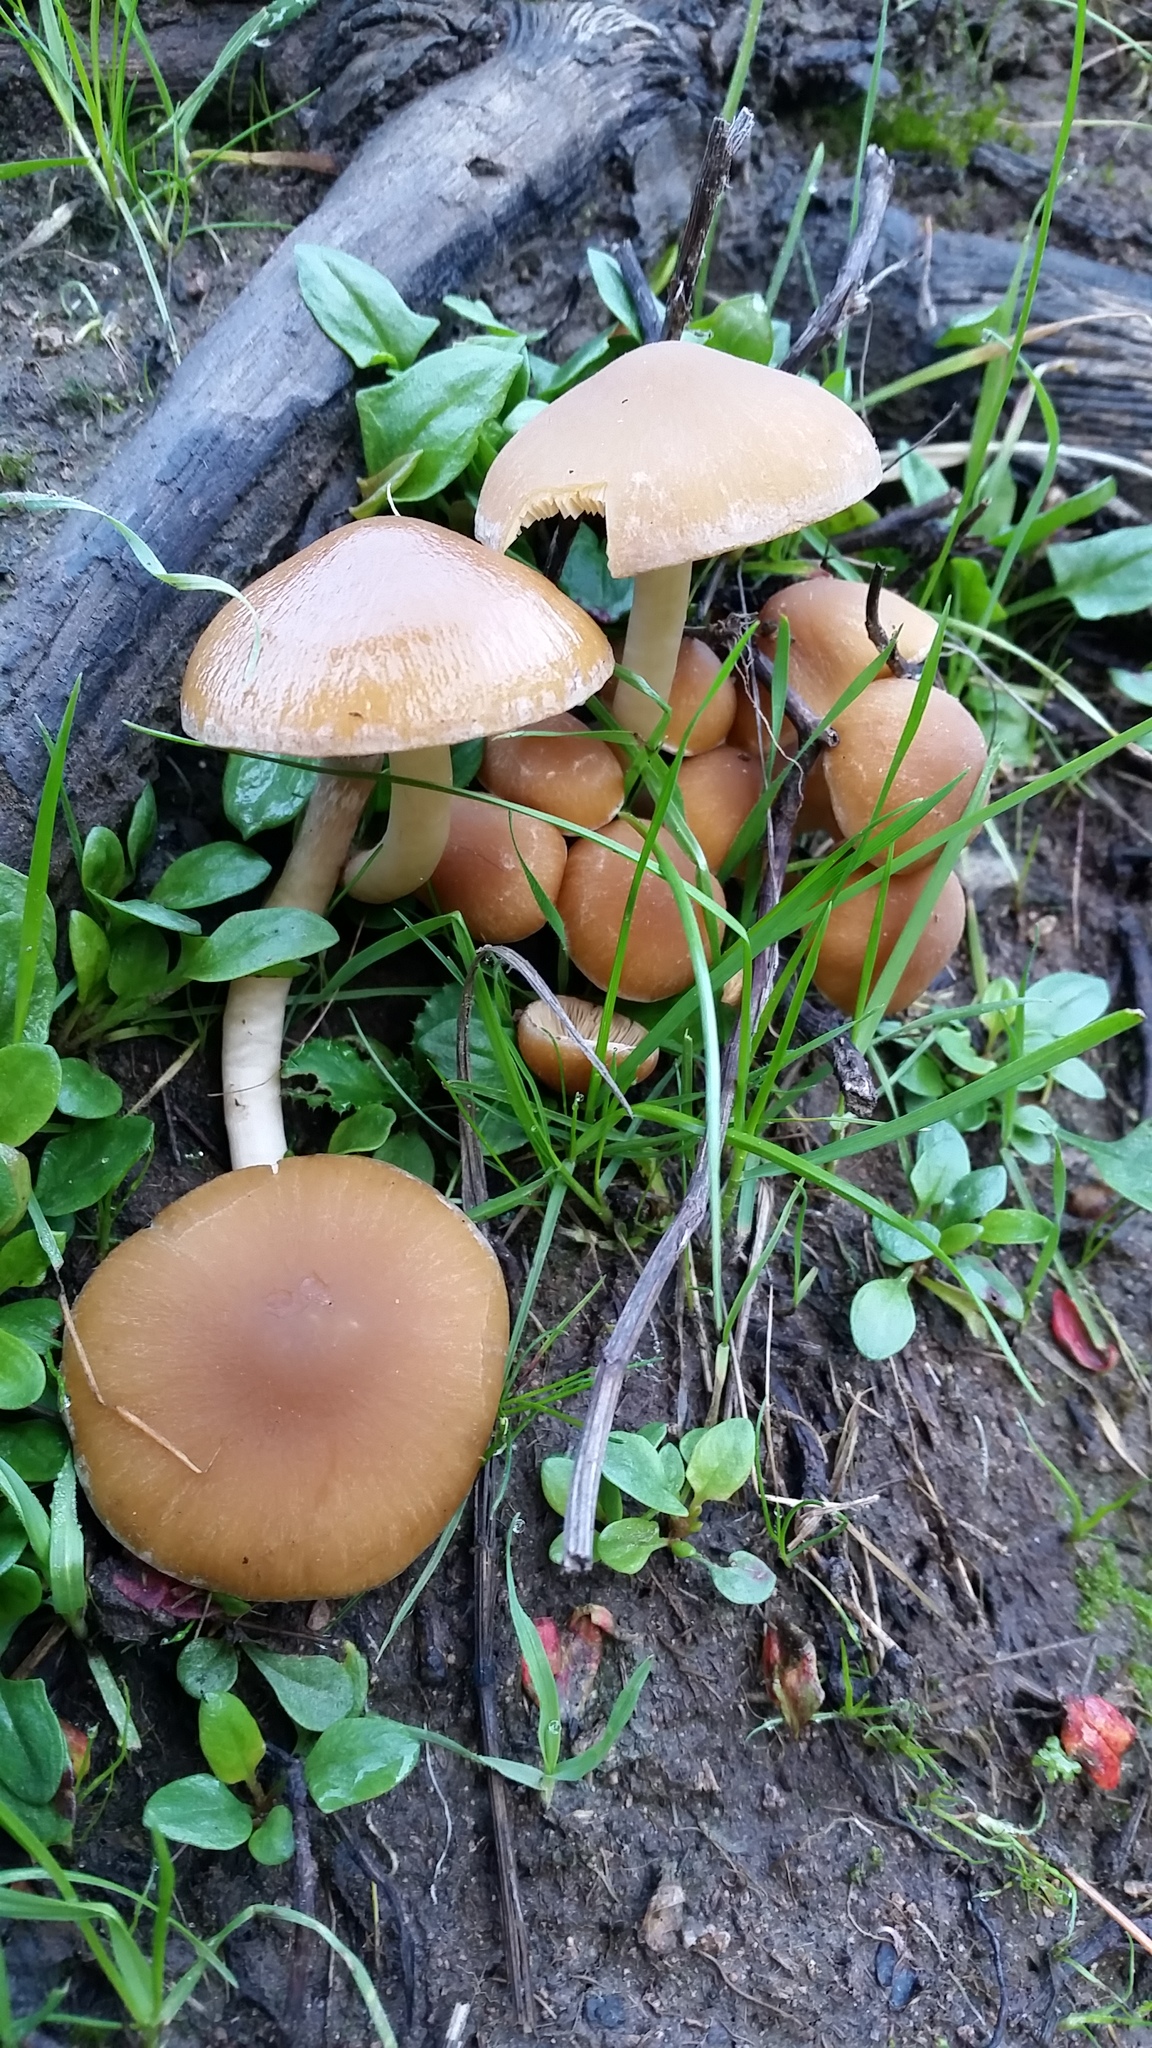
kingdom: Fungi
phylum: Basidiomycota
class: Agaricomycetes
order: Agaricales
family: Psathyrellaceae
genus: Psathyrella
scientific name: Psathyrella piluliformis
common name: Common stump brittlestem
